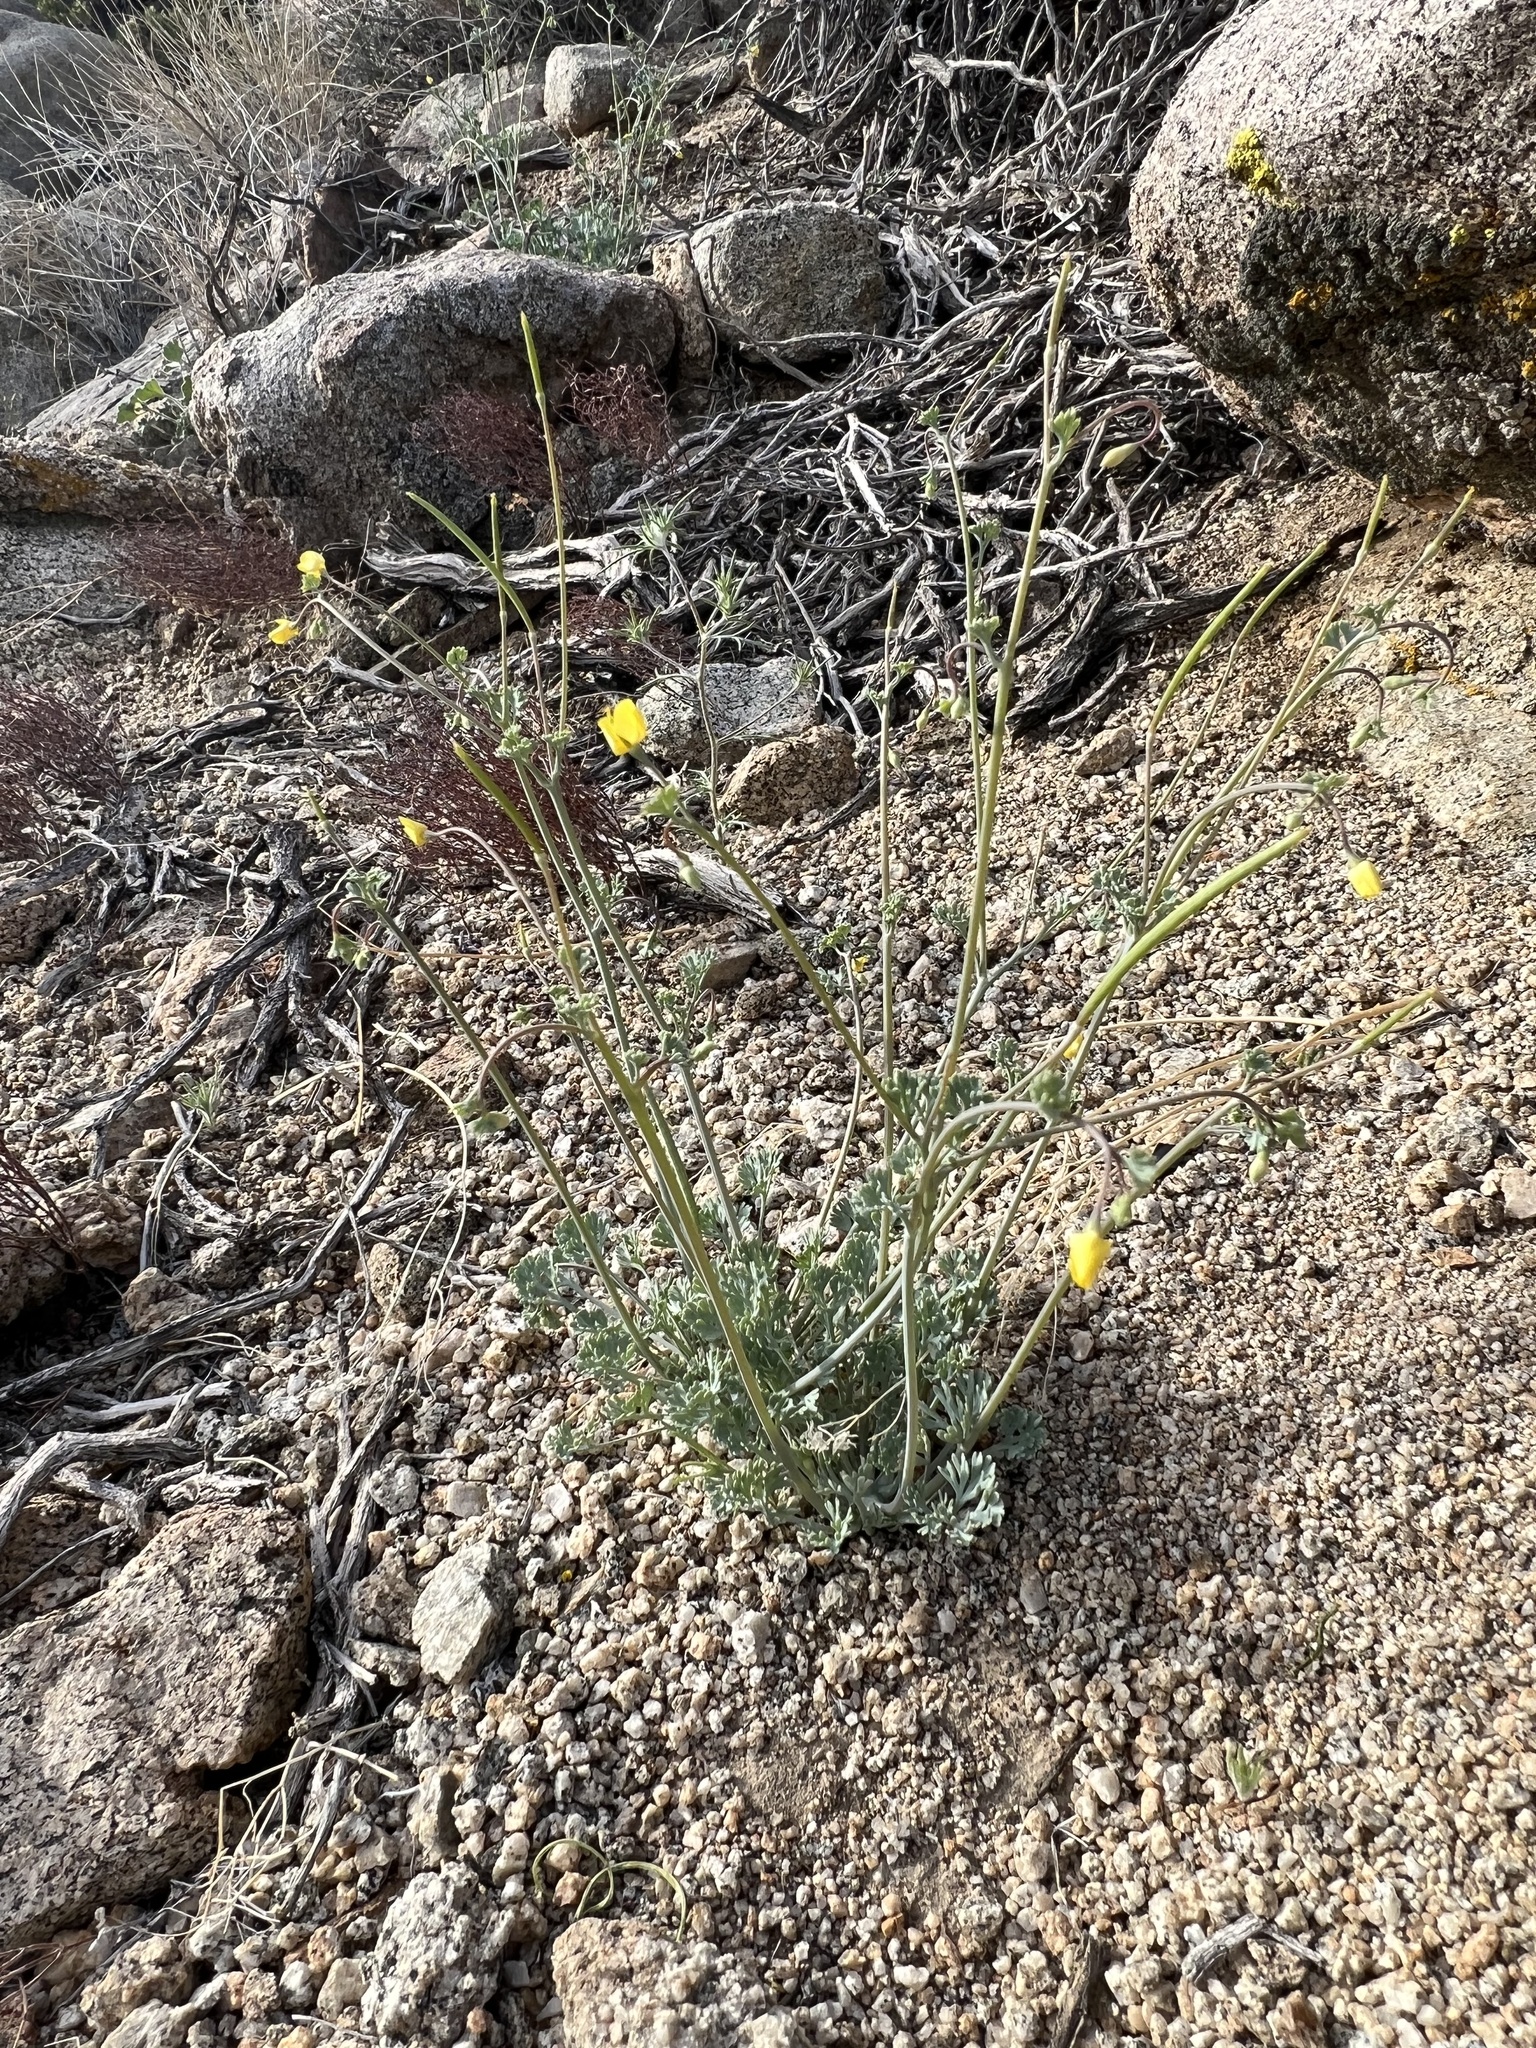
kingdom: Plantae
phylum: Tracheophyta
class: Magnoliopsida
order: Ranunculales
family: Papaveraceae
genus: Eschscholzia
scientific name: Eschscholzia minutiflora
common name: Small-flower california-poppy
